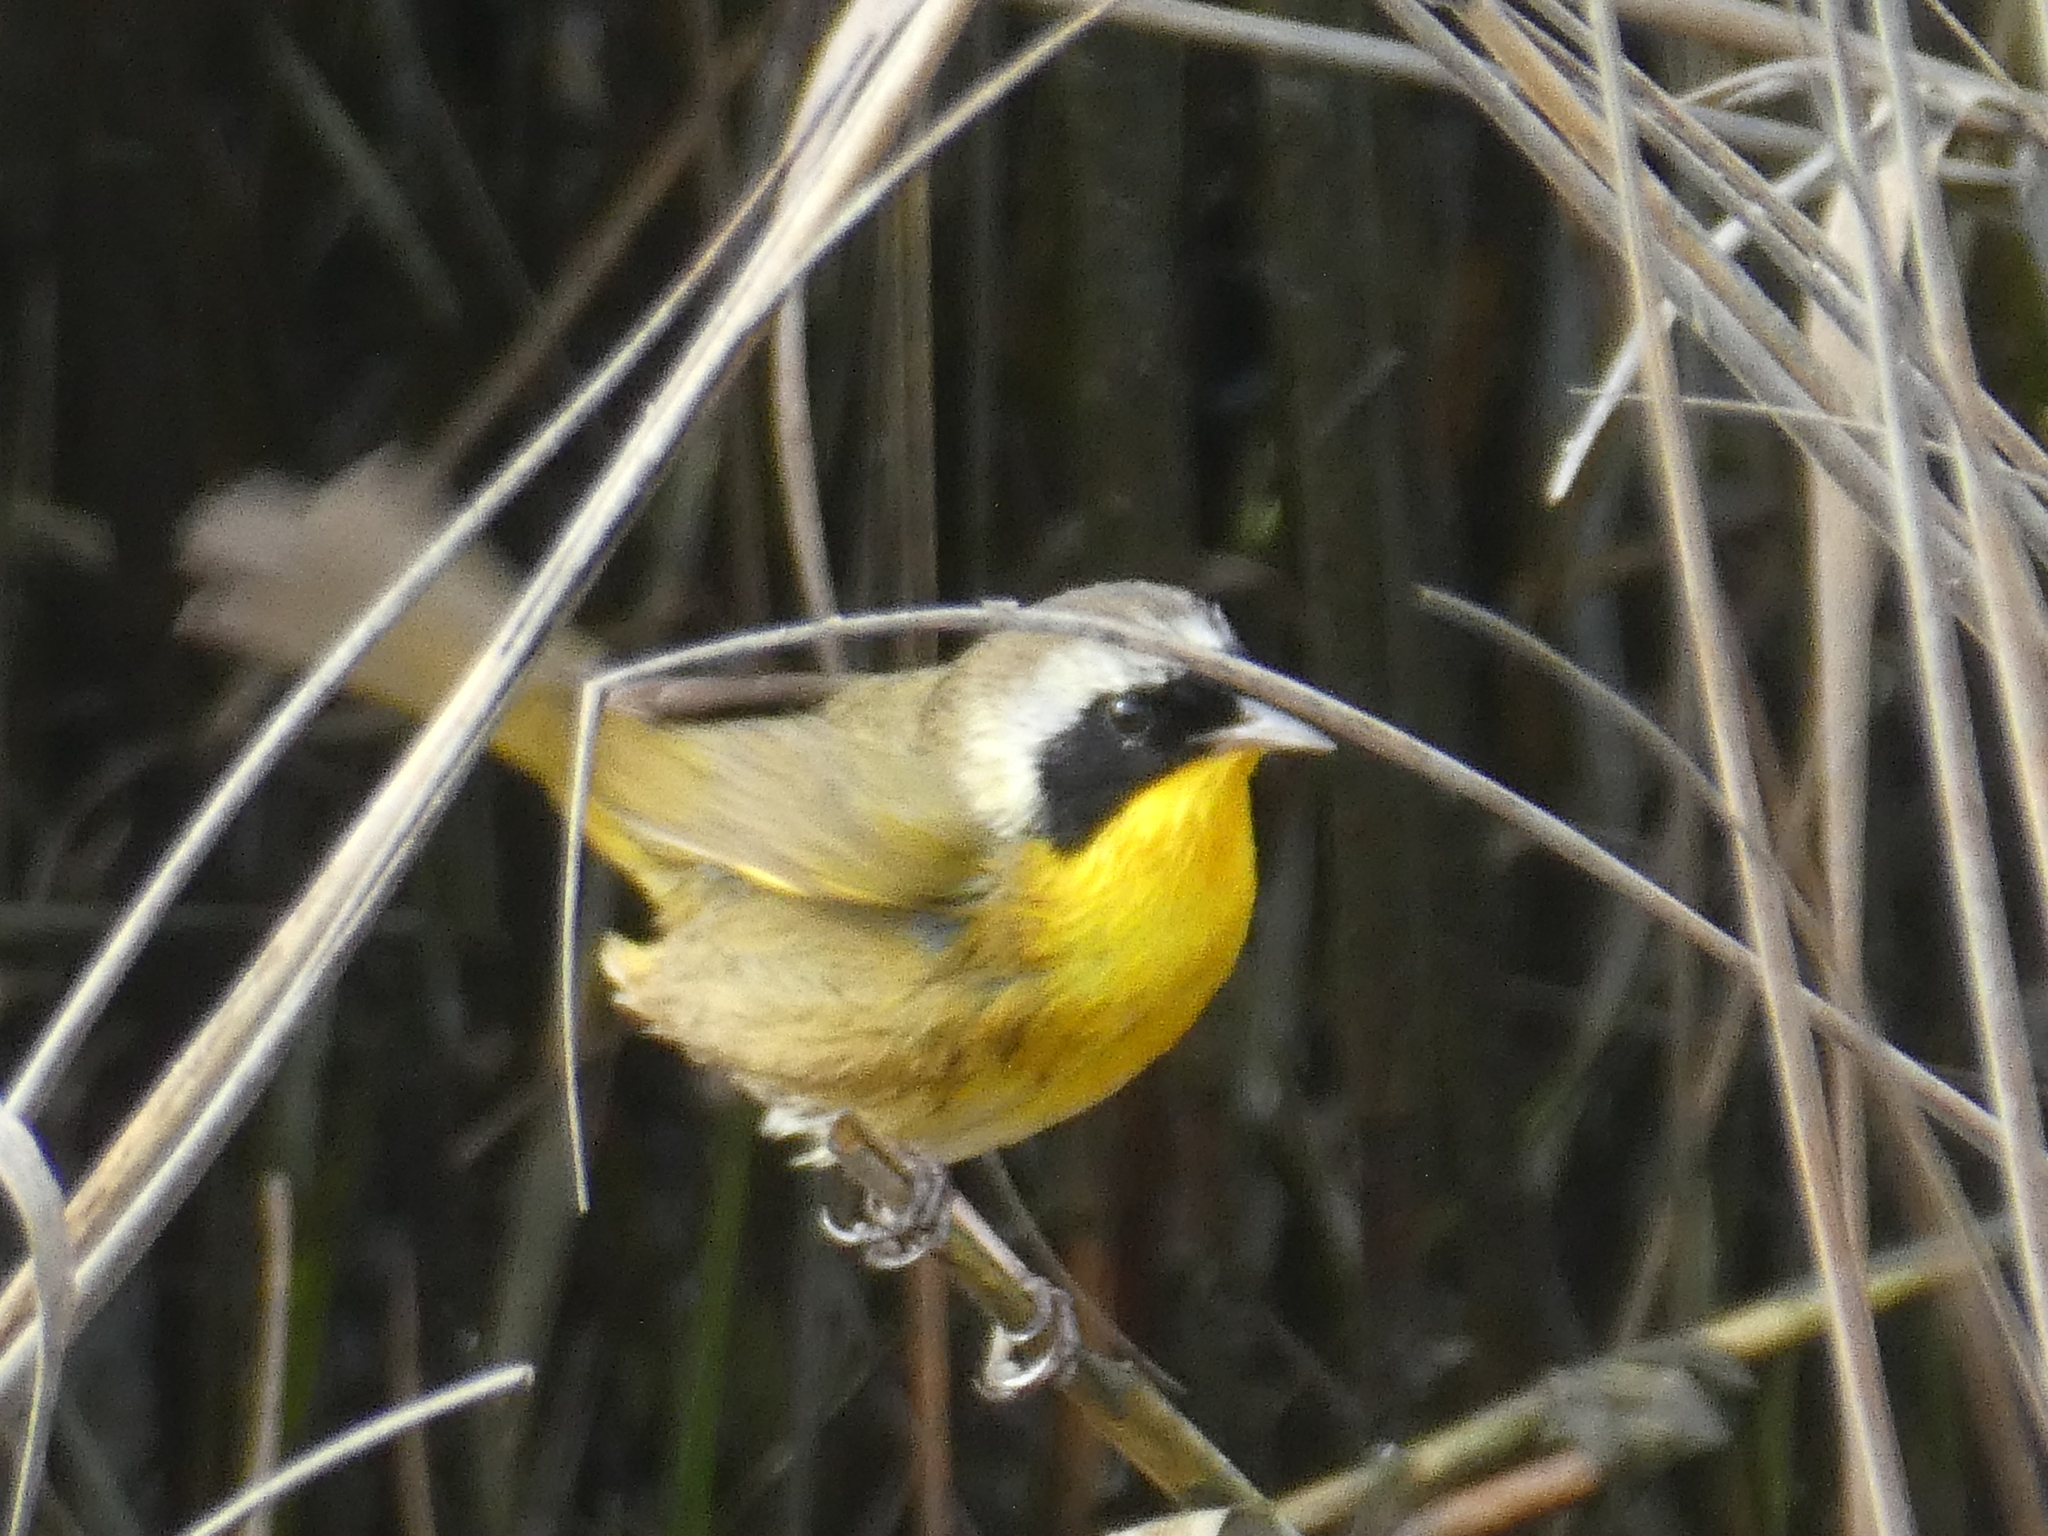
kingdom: Animalia
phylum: Chordata
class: Aves
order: Passeriformes
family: Parulidae
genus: Geothlypis
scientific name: Geothlypis trichas
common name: Common yellowthroat
